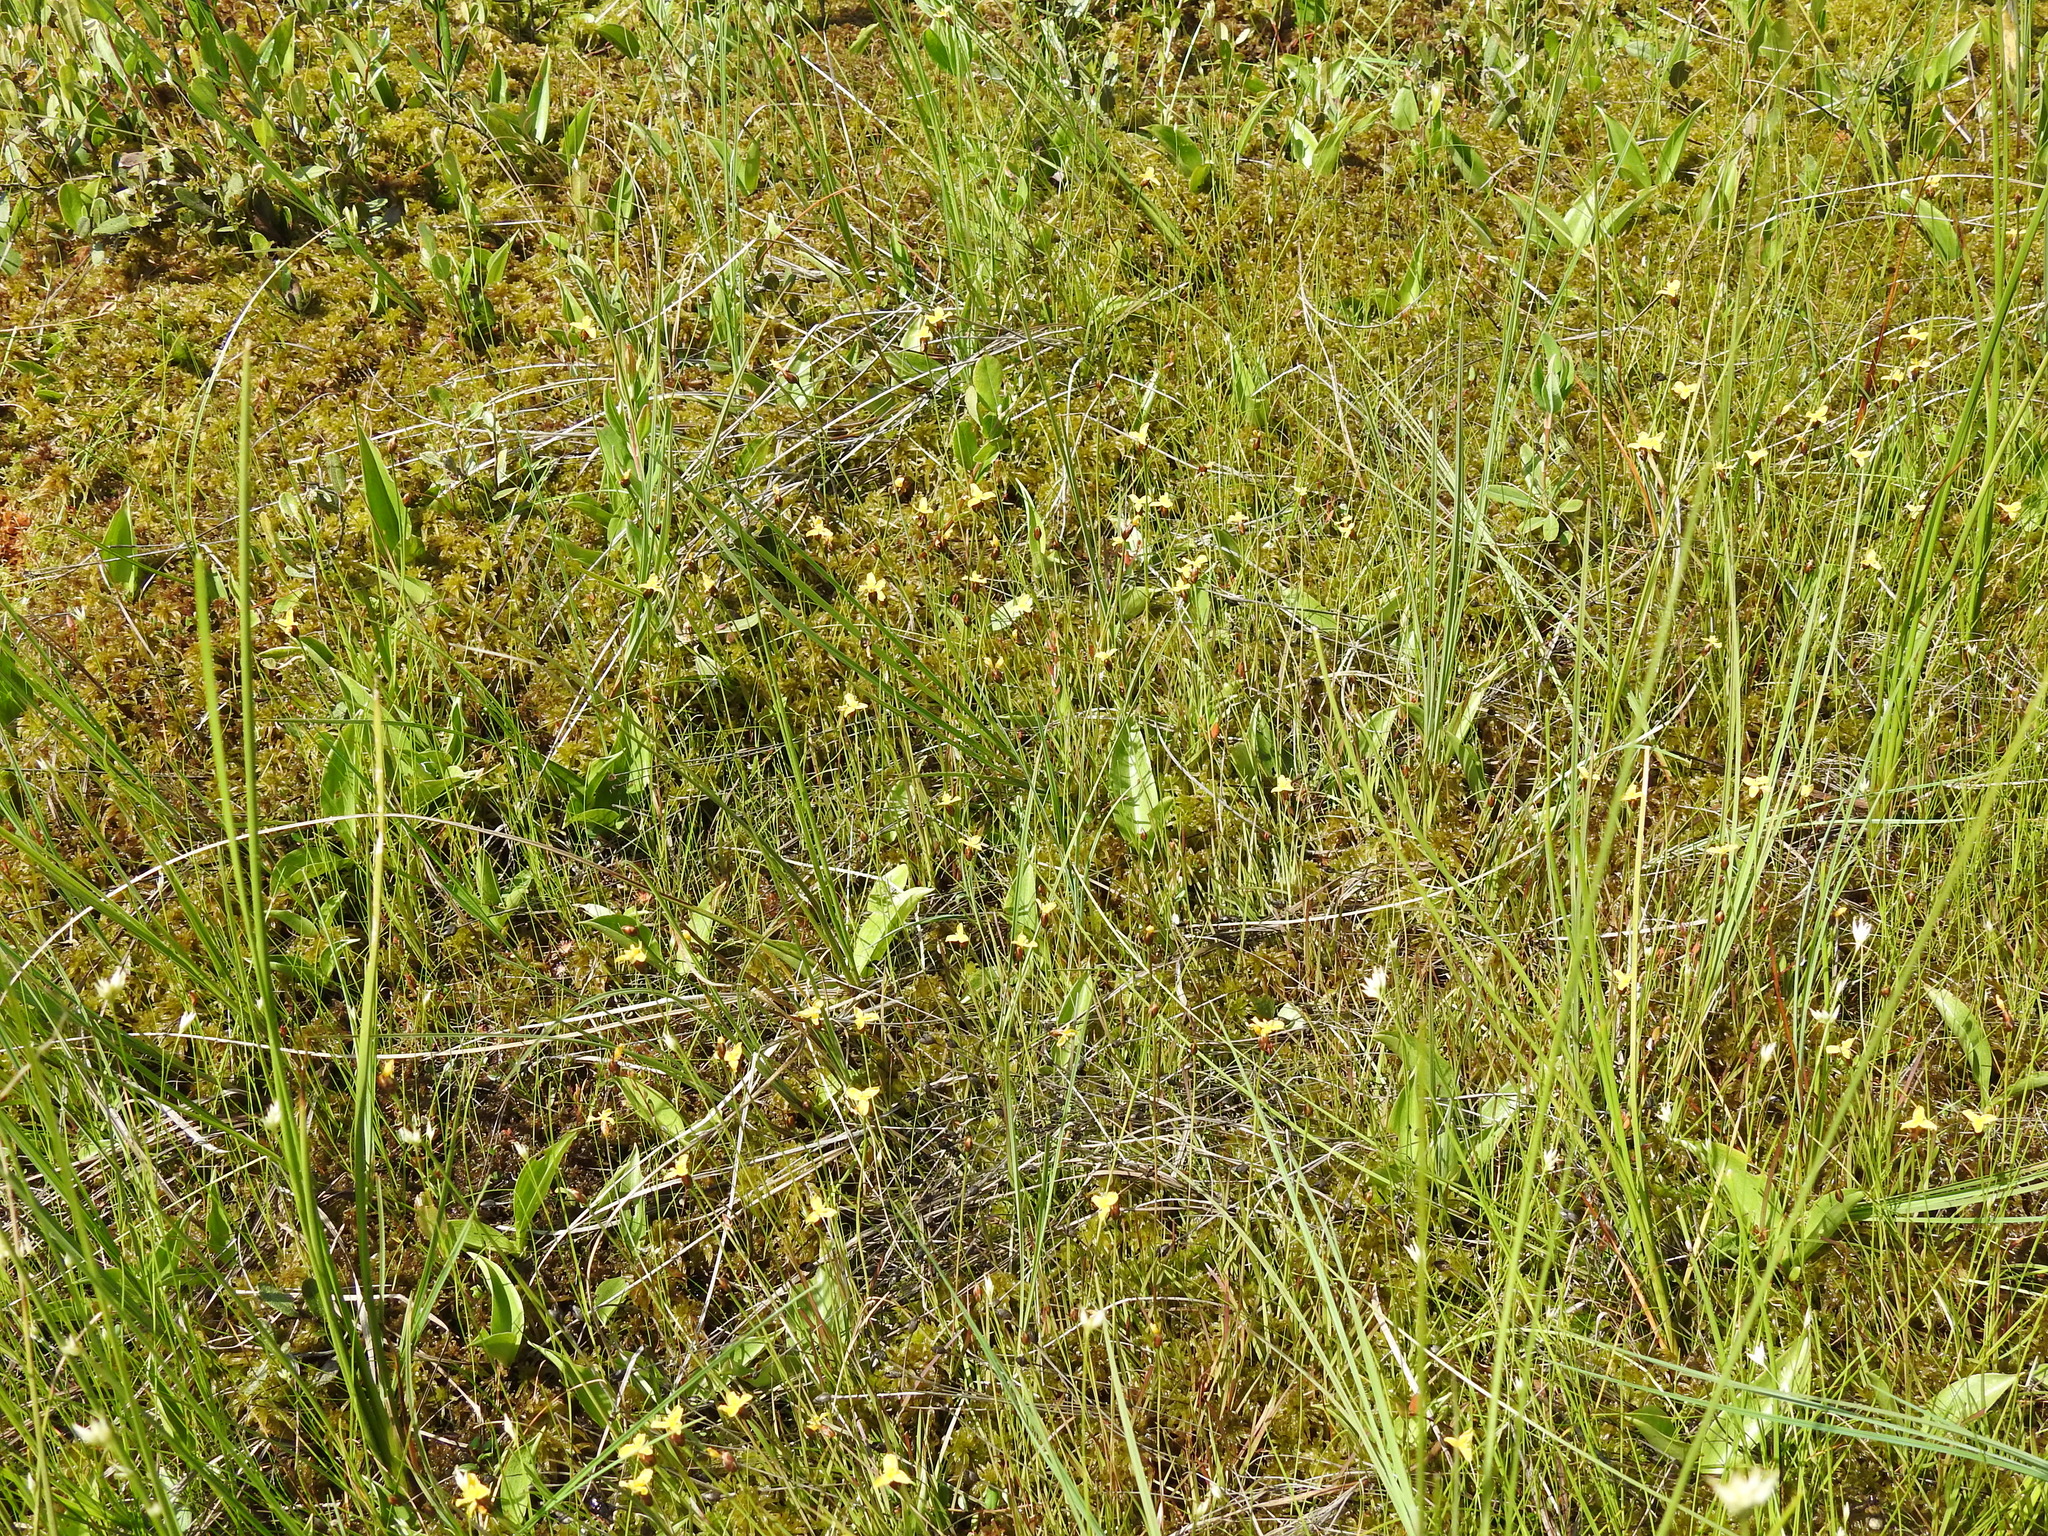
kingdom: Plantae
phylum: Tracheophyta
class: Liliopsida
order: Poales
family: Xyridaceae
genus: Xyris
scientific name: Xyris montana
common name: Northern yellow-eyed-grass
